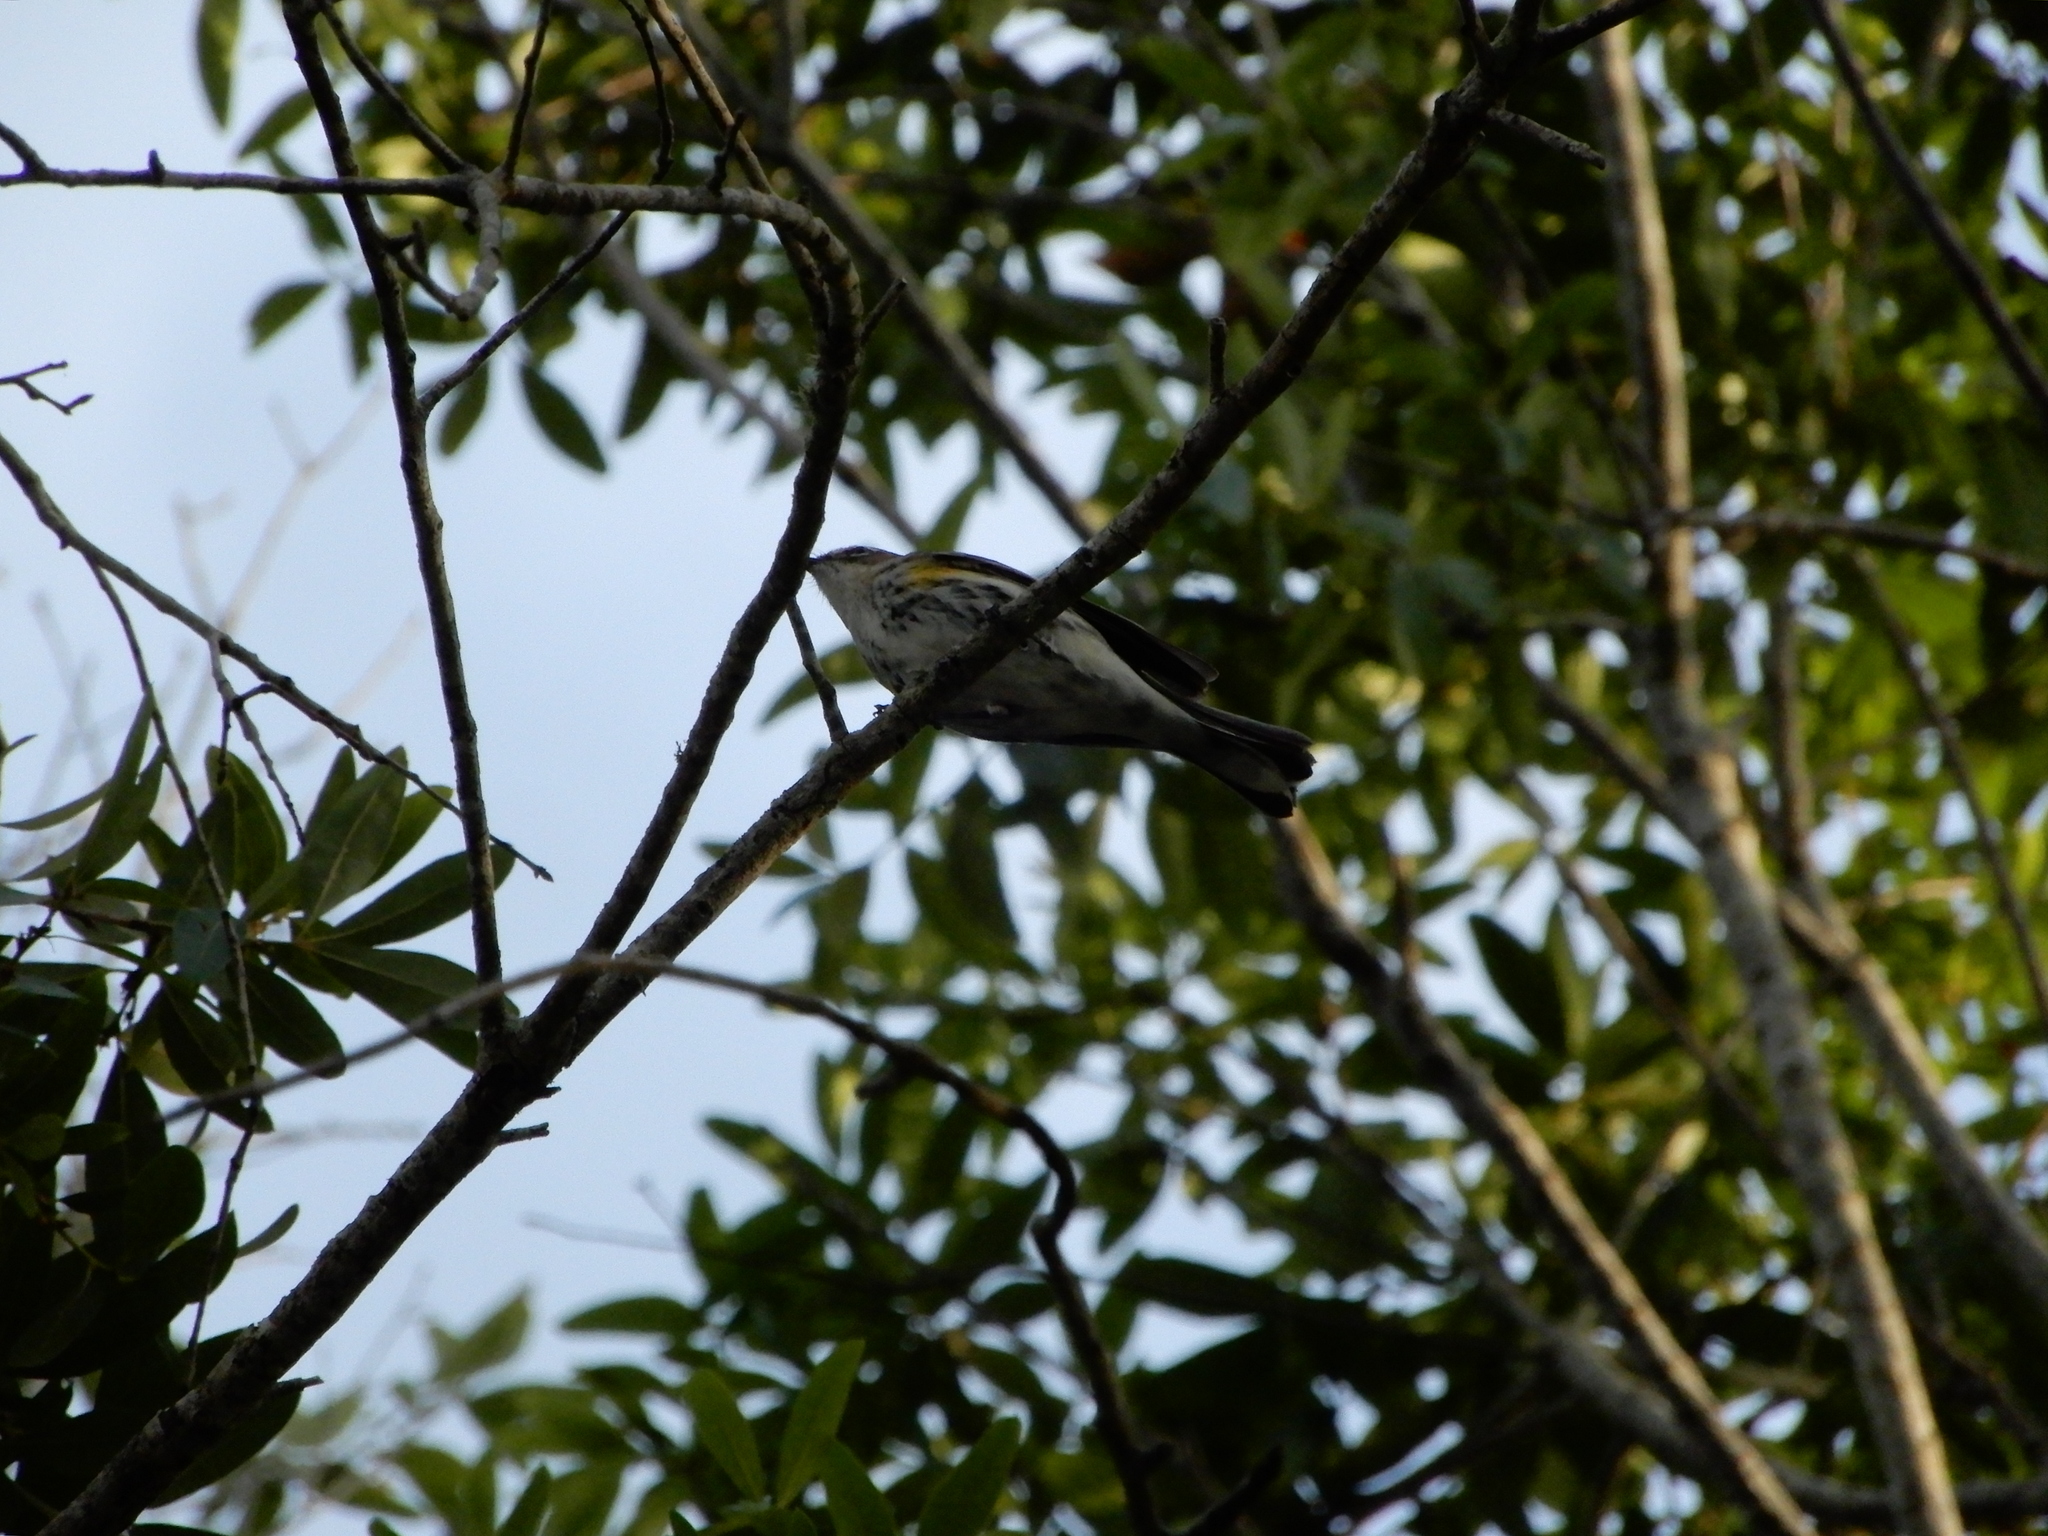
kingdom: Animalia
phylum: Chordata
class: Aves
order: Passeriformes
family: Parulidae
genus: Setophaga
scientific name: Setophaga coronata
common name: Myrtle warbler
